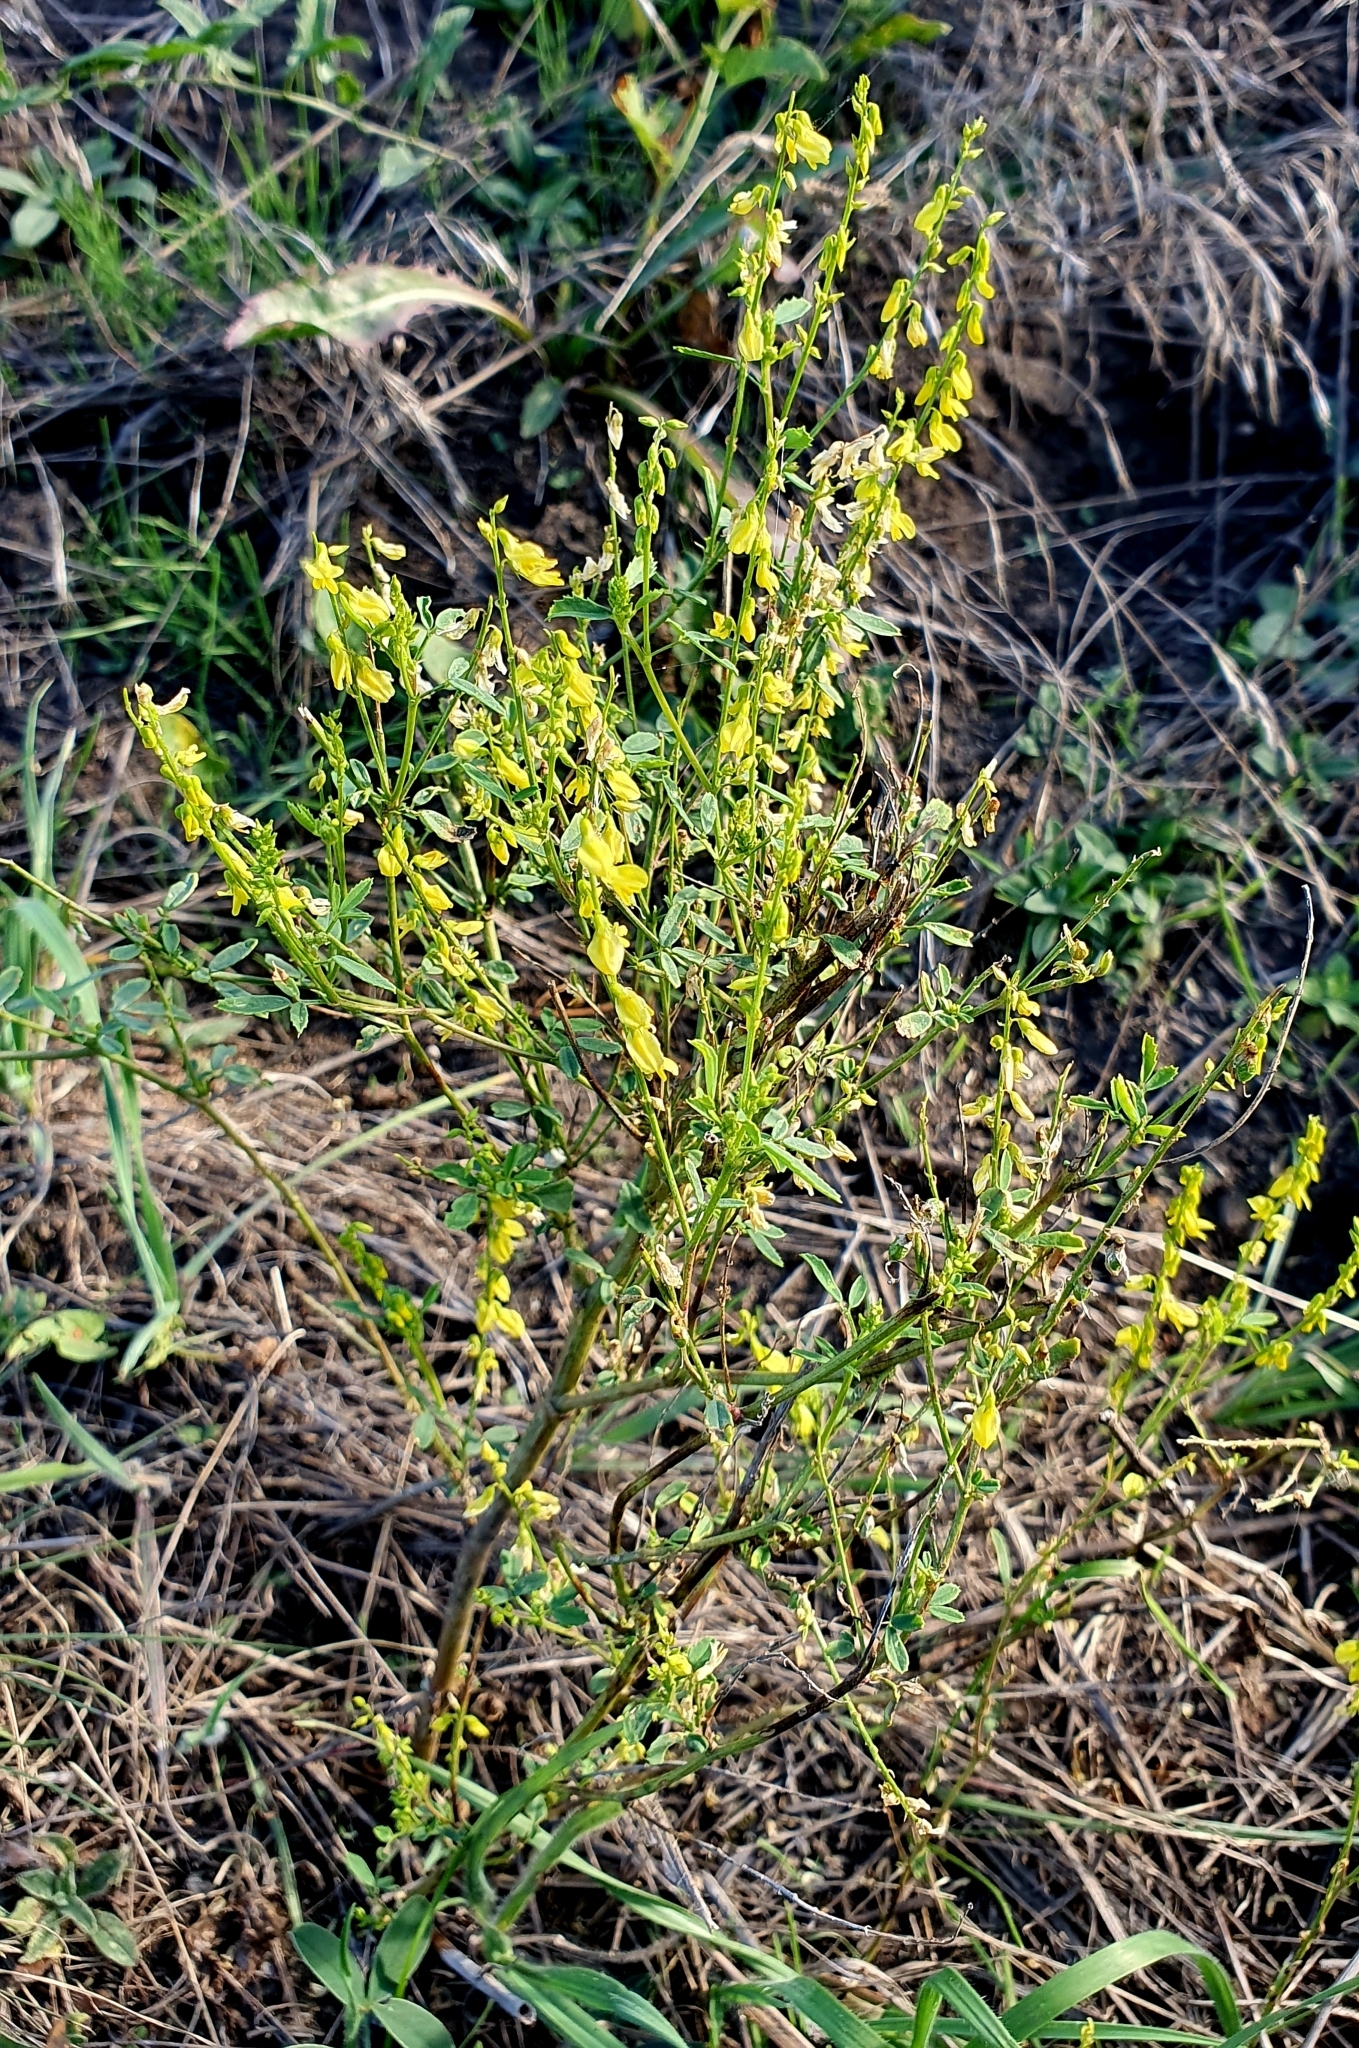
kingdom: Plantae
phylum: Tracheophyta
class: Magnoliopsida
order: Fabales
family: Fabaceae
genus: Melilotus
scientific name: Melilotus officinalis
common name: Sweetclover
